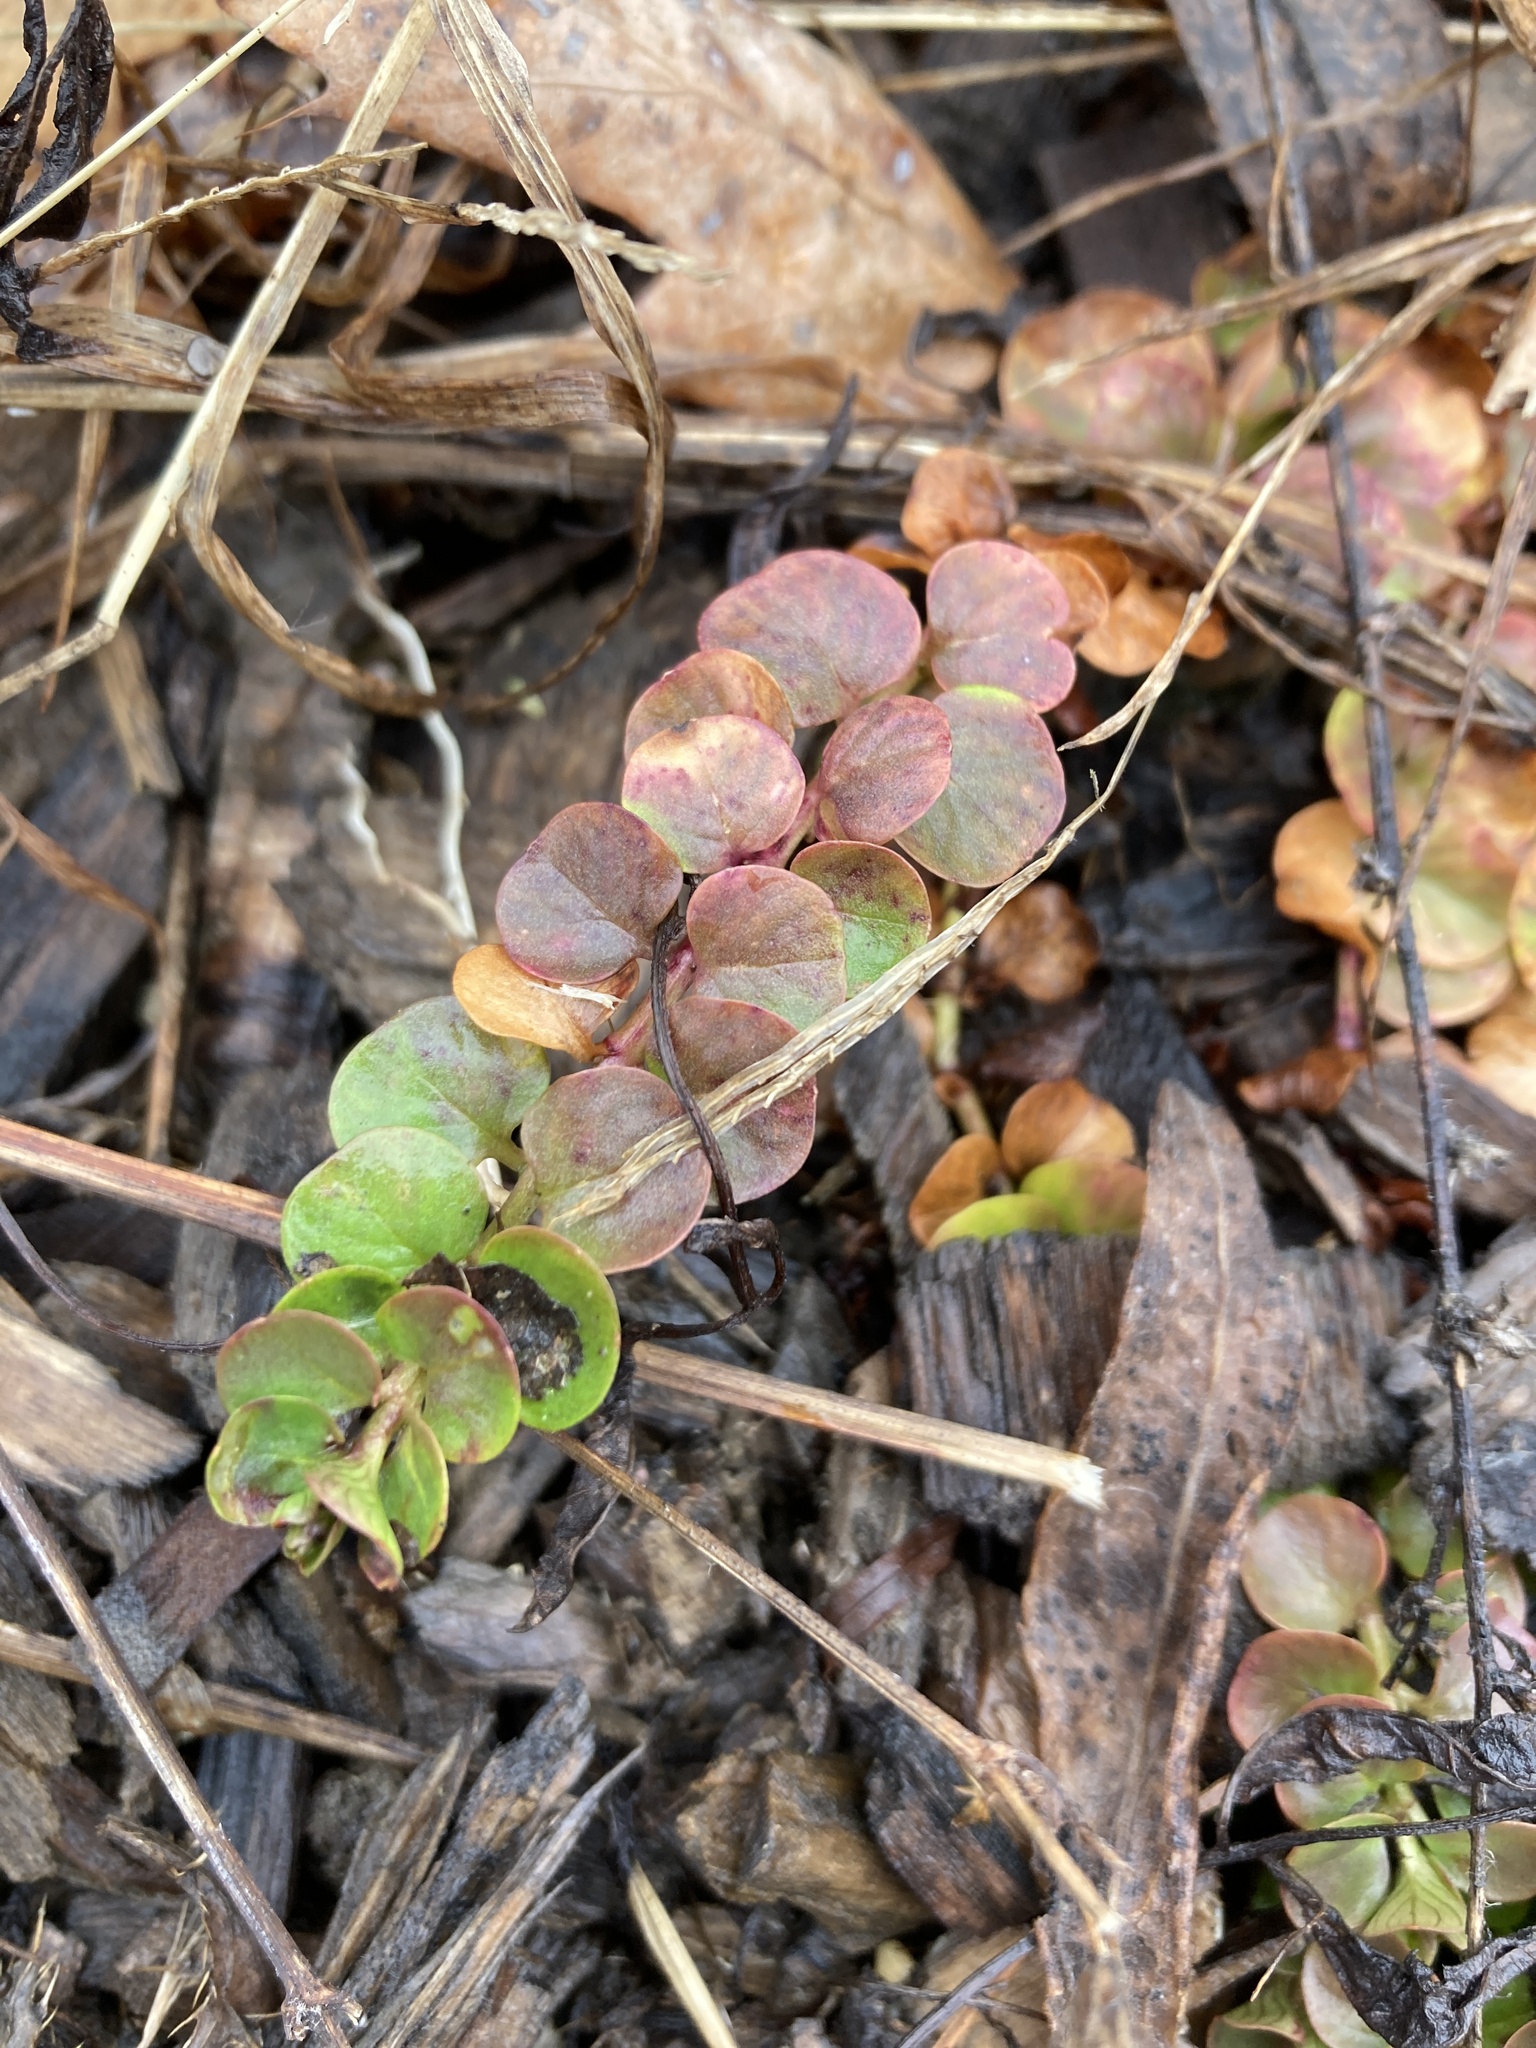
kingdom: Plantae
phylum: Tracheophyta
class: Magnoliopsida
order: Ericales
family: Primulaceae
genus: Lysimachia
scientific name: Lysimachia nummularia
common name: Moneywort
